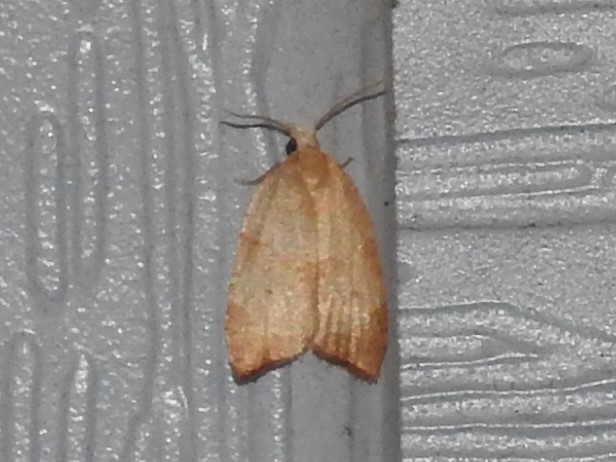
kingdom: Animalia
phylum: Arthropoda
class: Insecta
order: Lepidoptera
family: Tortricidae
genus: Coelostathma
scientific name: Coelostathma discopunctana
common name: Batman moth
